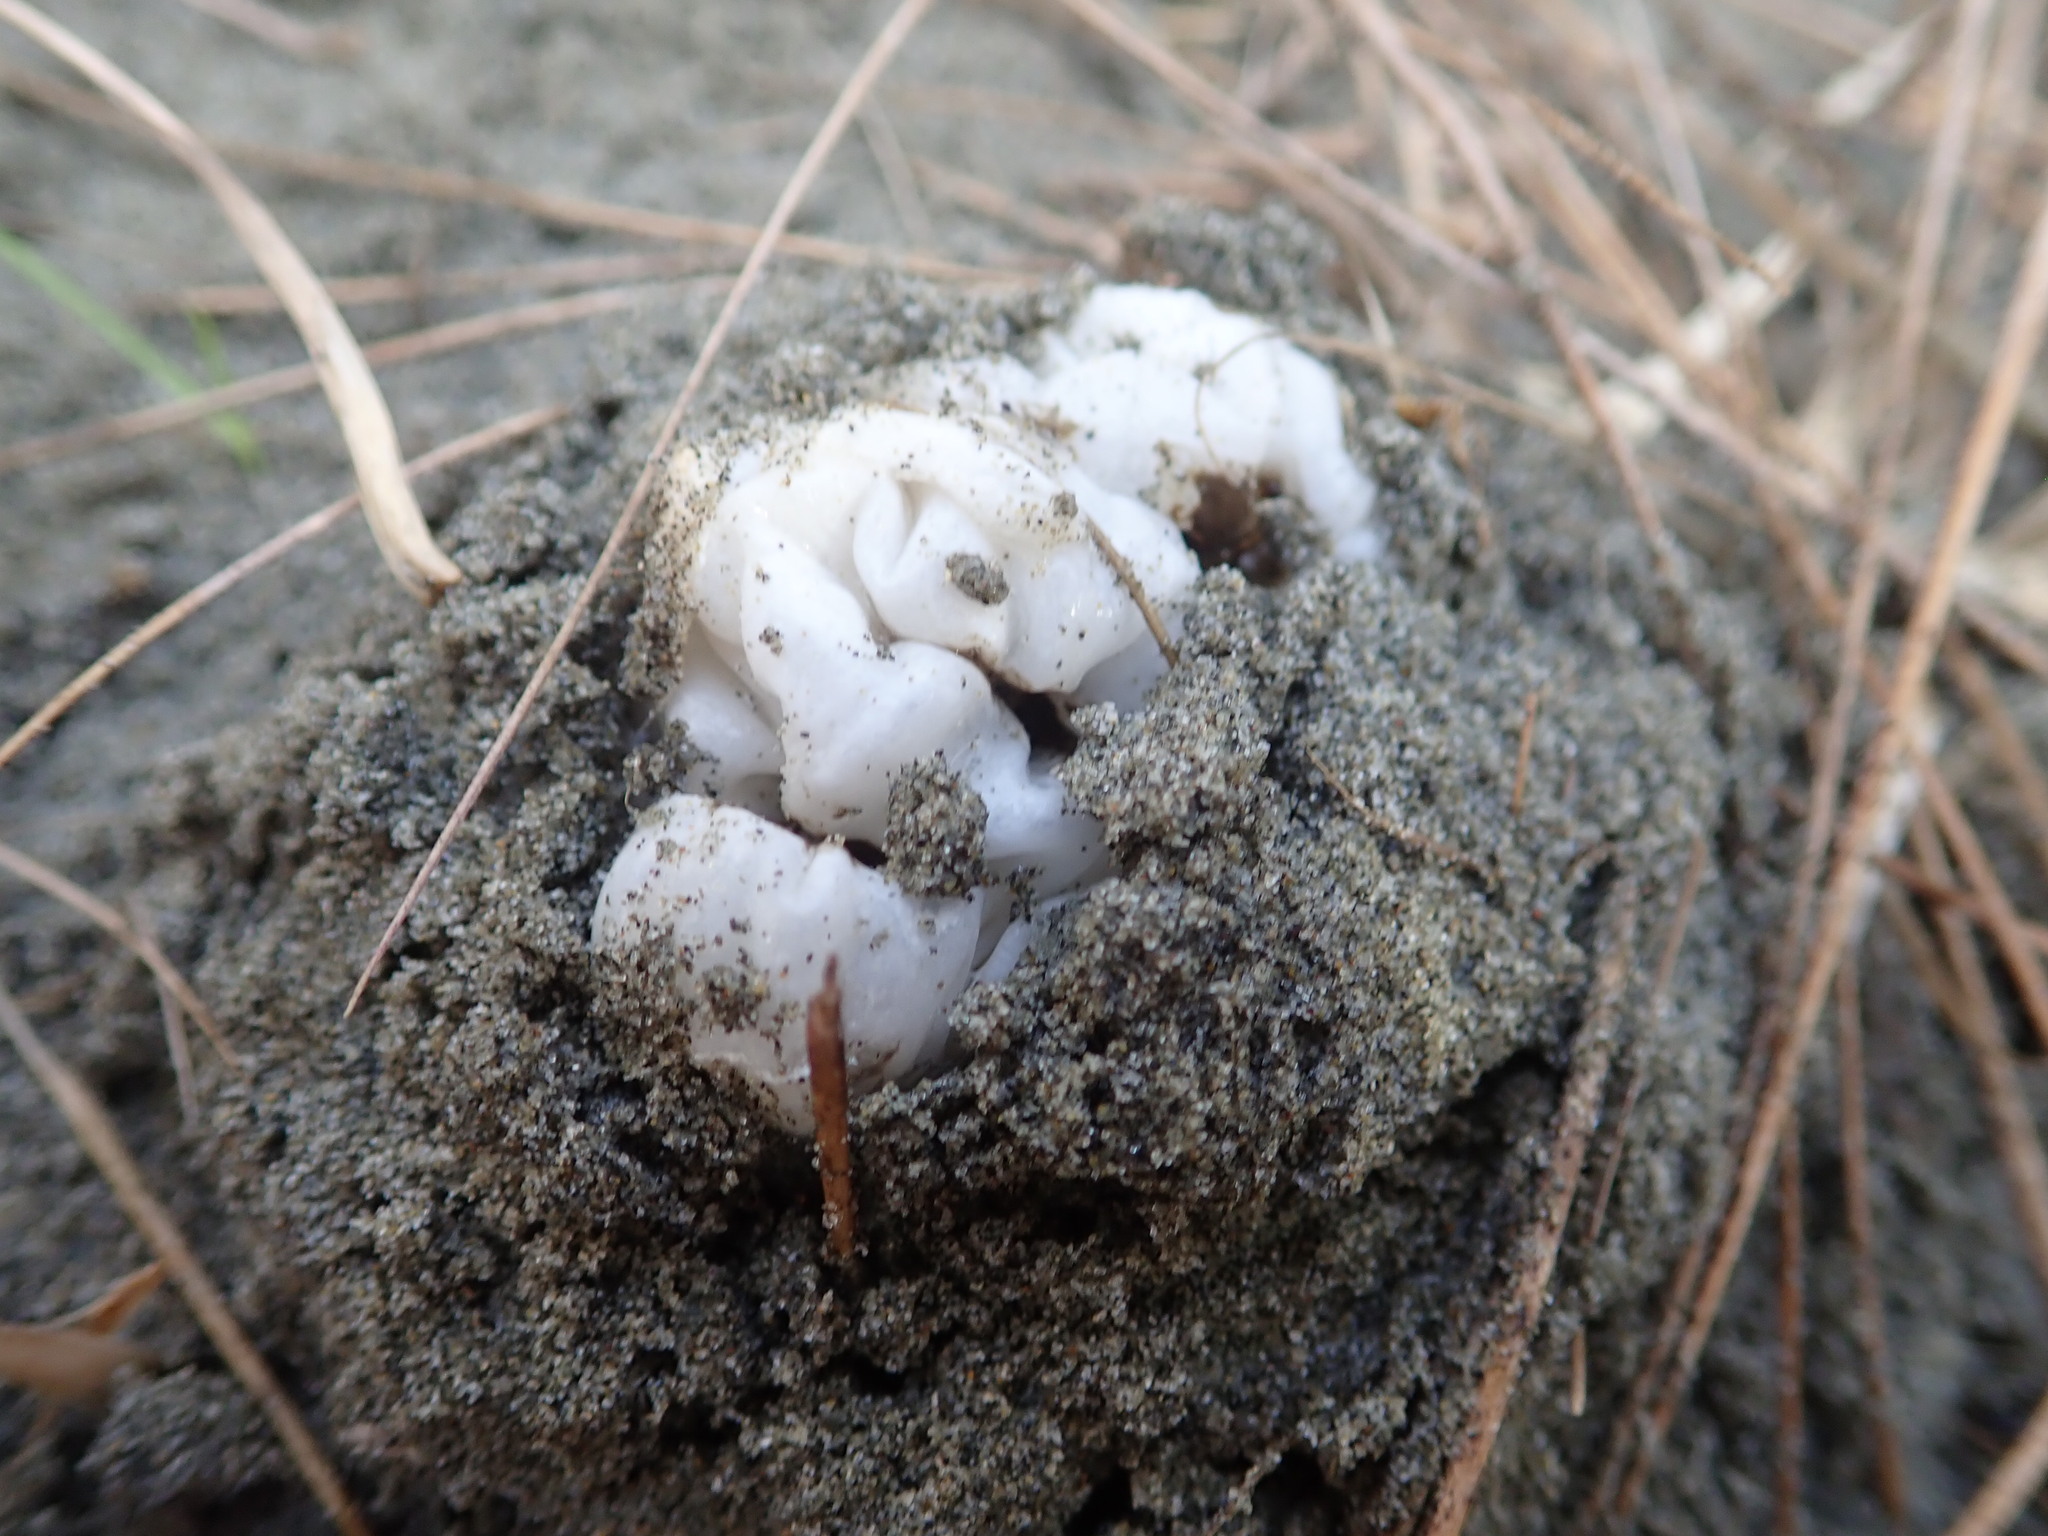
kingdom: Fungi
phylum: Basidiomycota
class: Agaricomycetes
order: Phallales
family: Phallaceae
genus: Ileodictyon
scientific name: Ileodictyon cibarium
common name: Basket fungus
